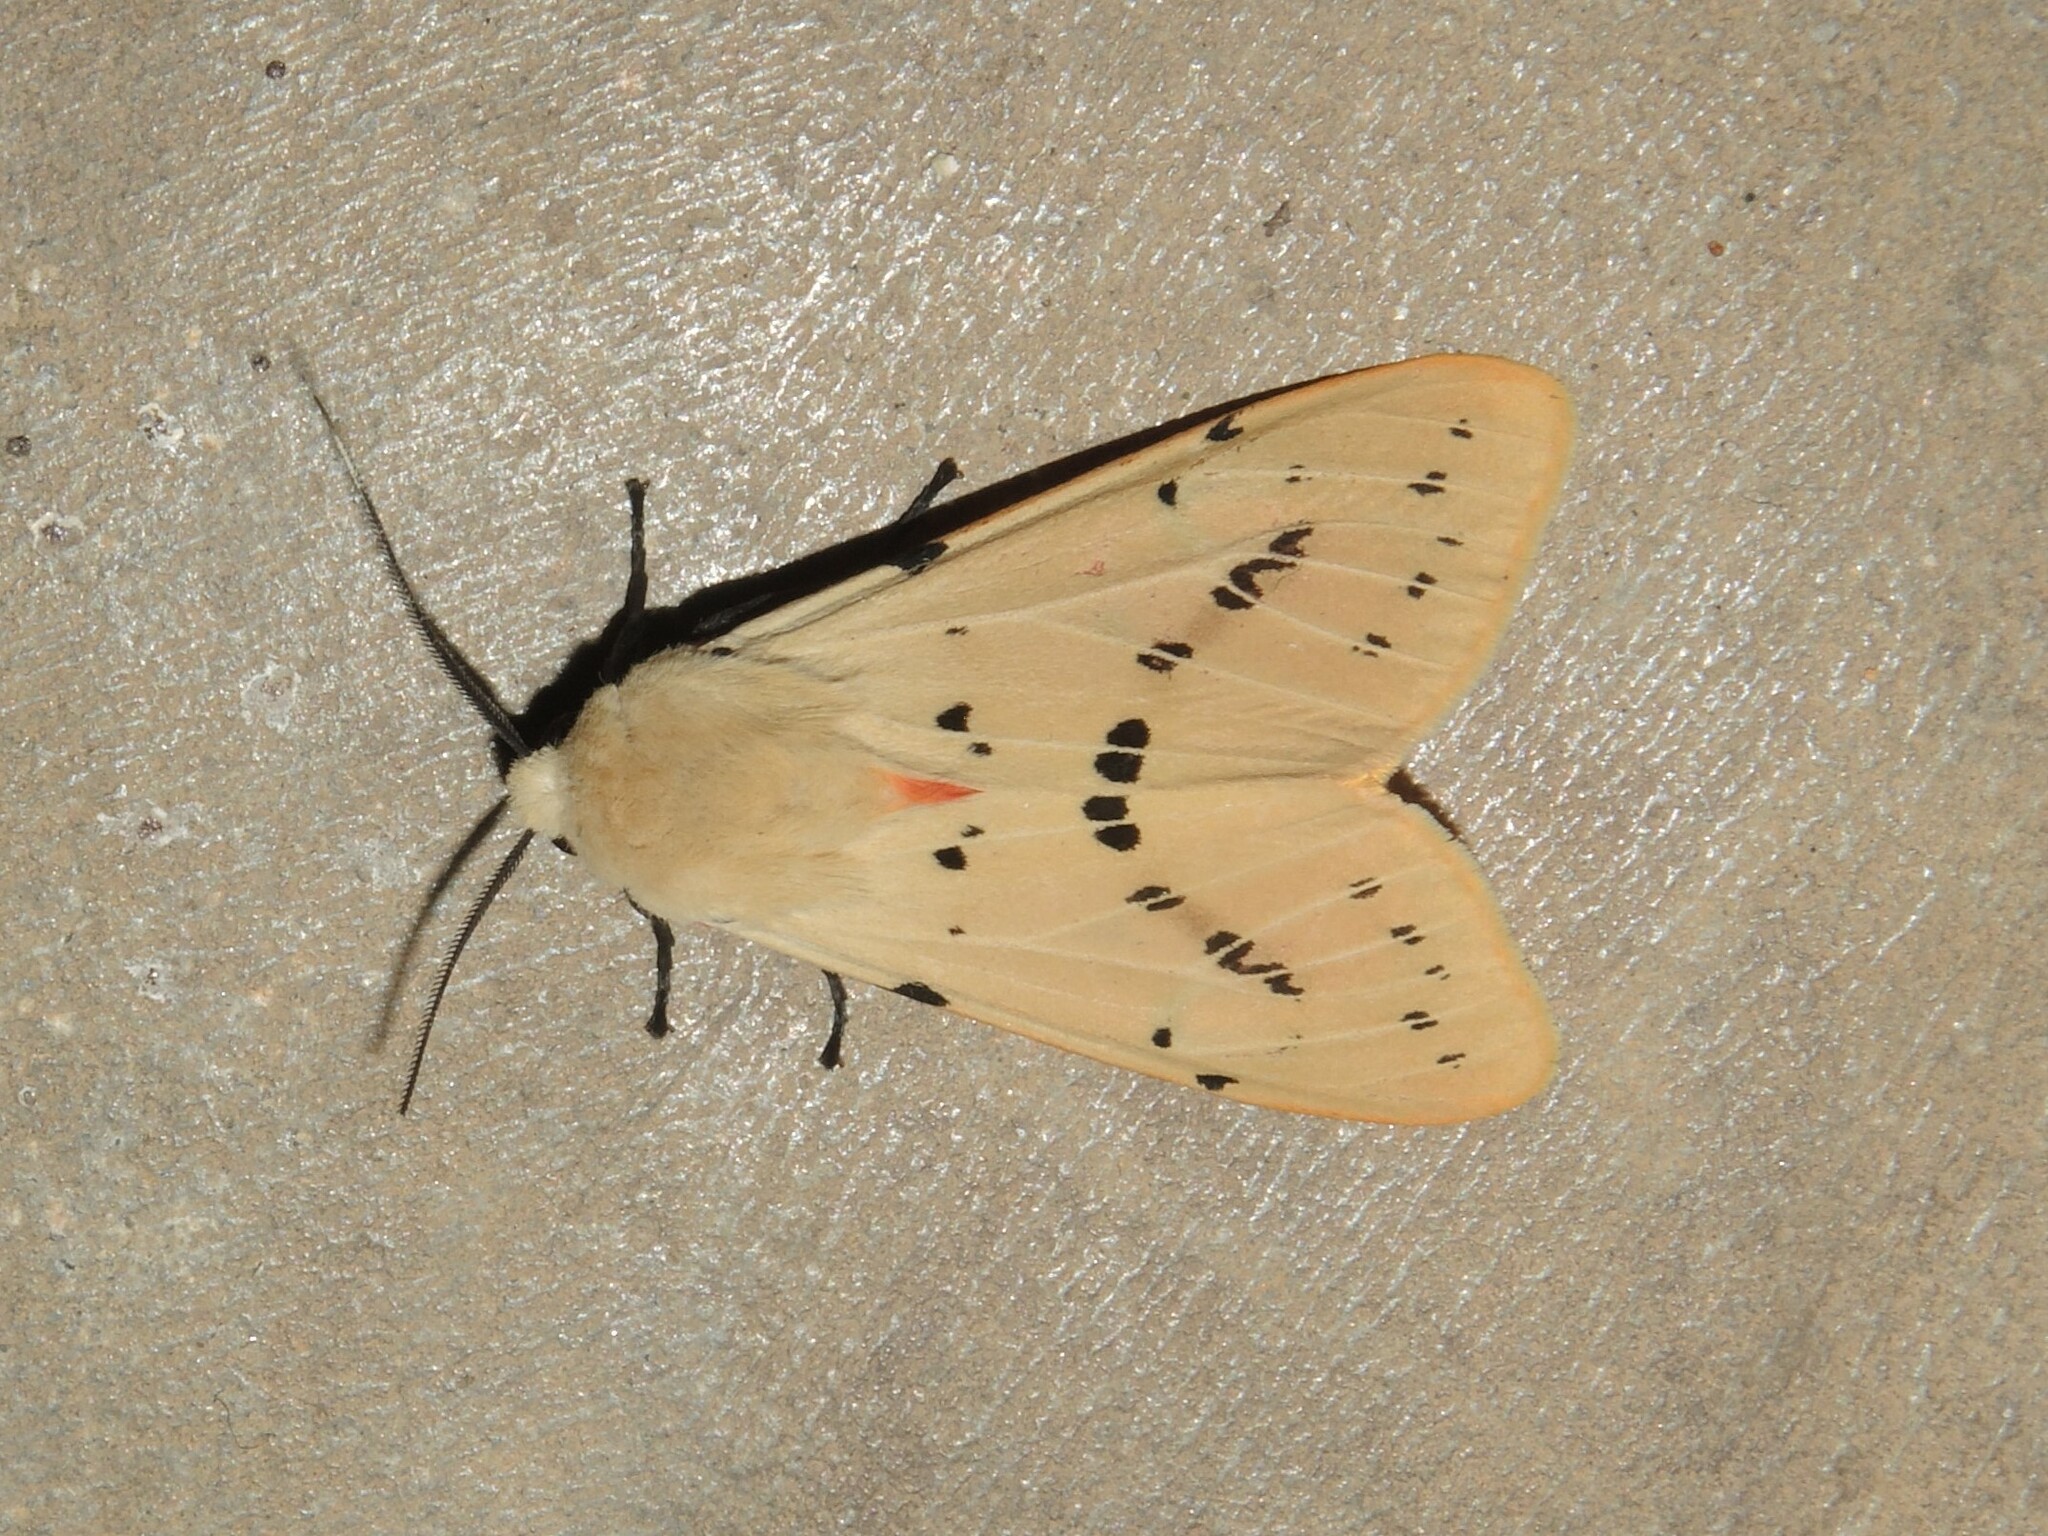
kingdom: Animalia
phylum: Arthropoda
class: Insecta
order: Lepidoptera
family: Erebidae
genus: Spilarctia
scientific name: Spilarctia lutea
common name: Buff ermine
